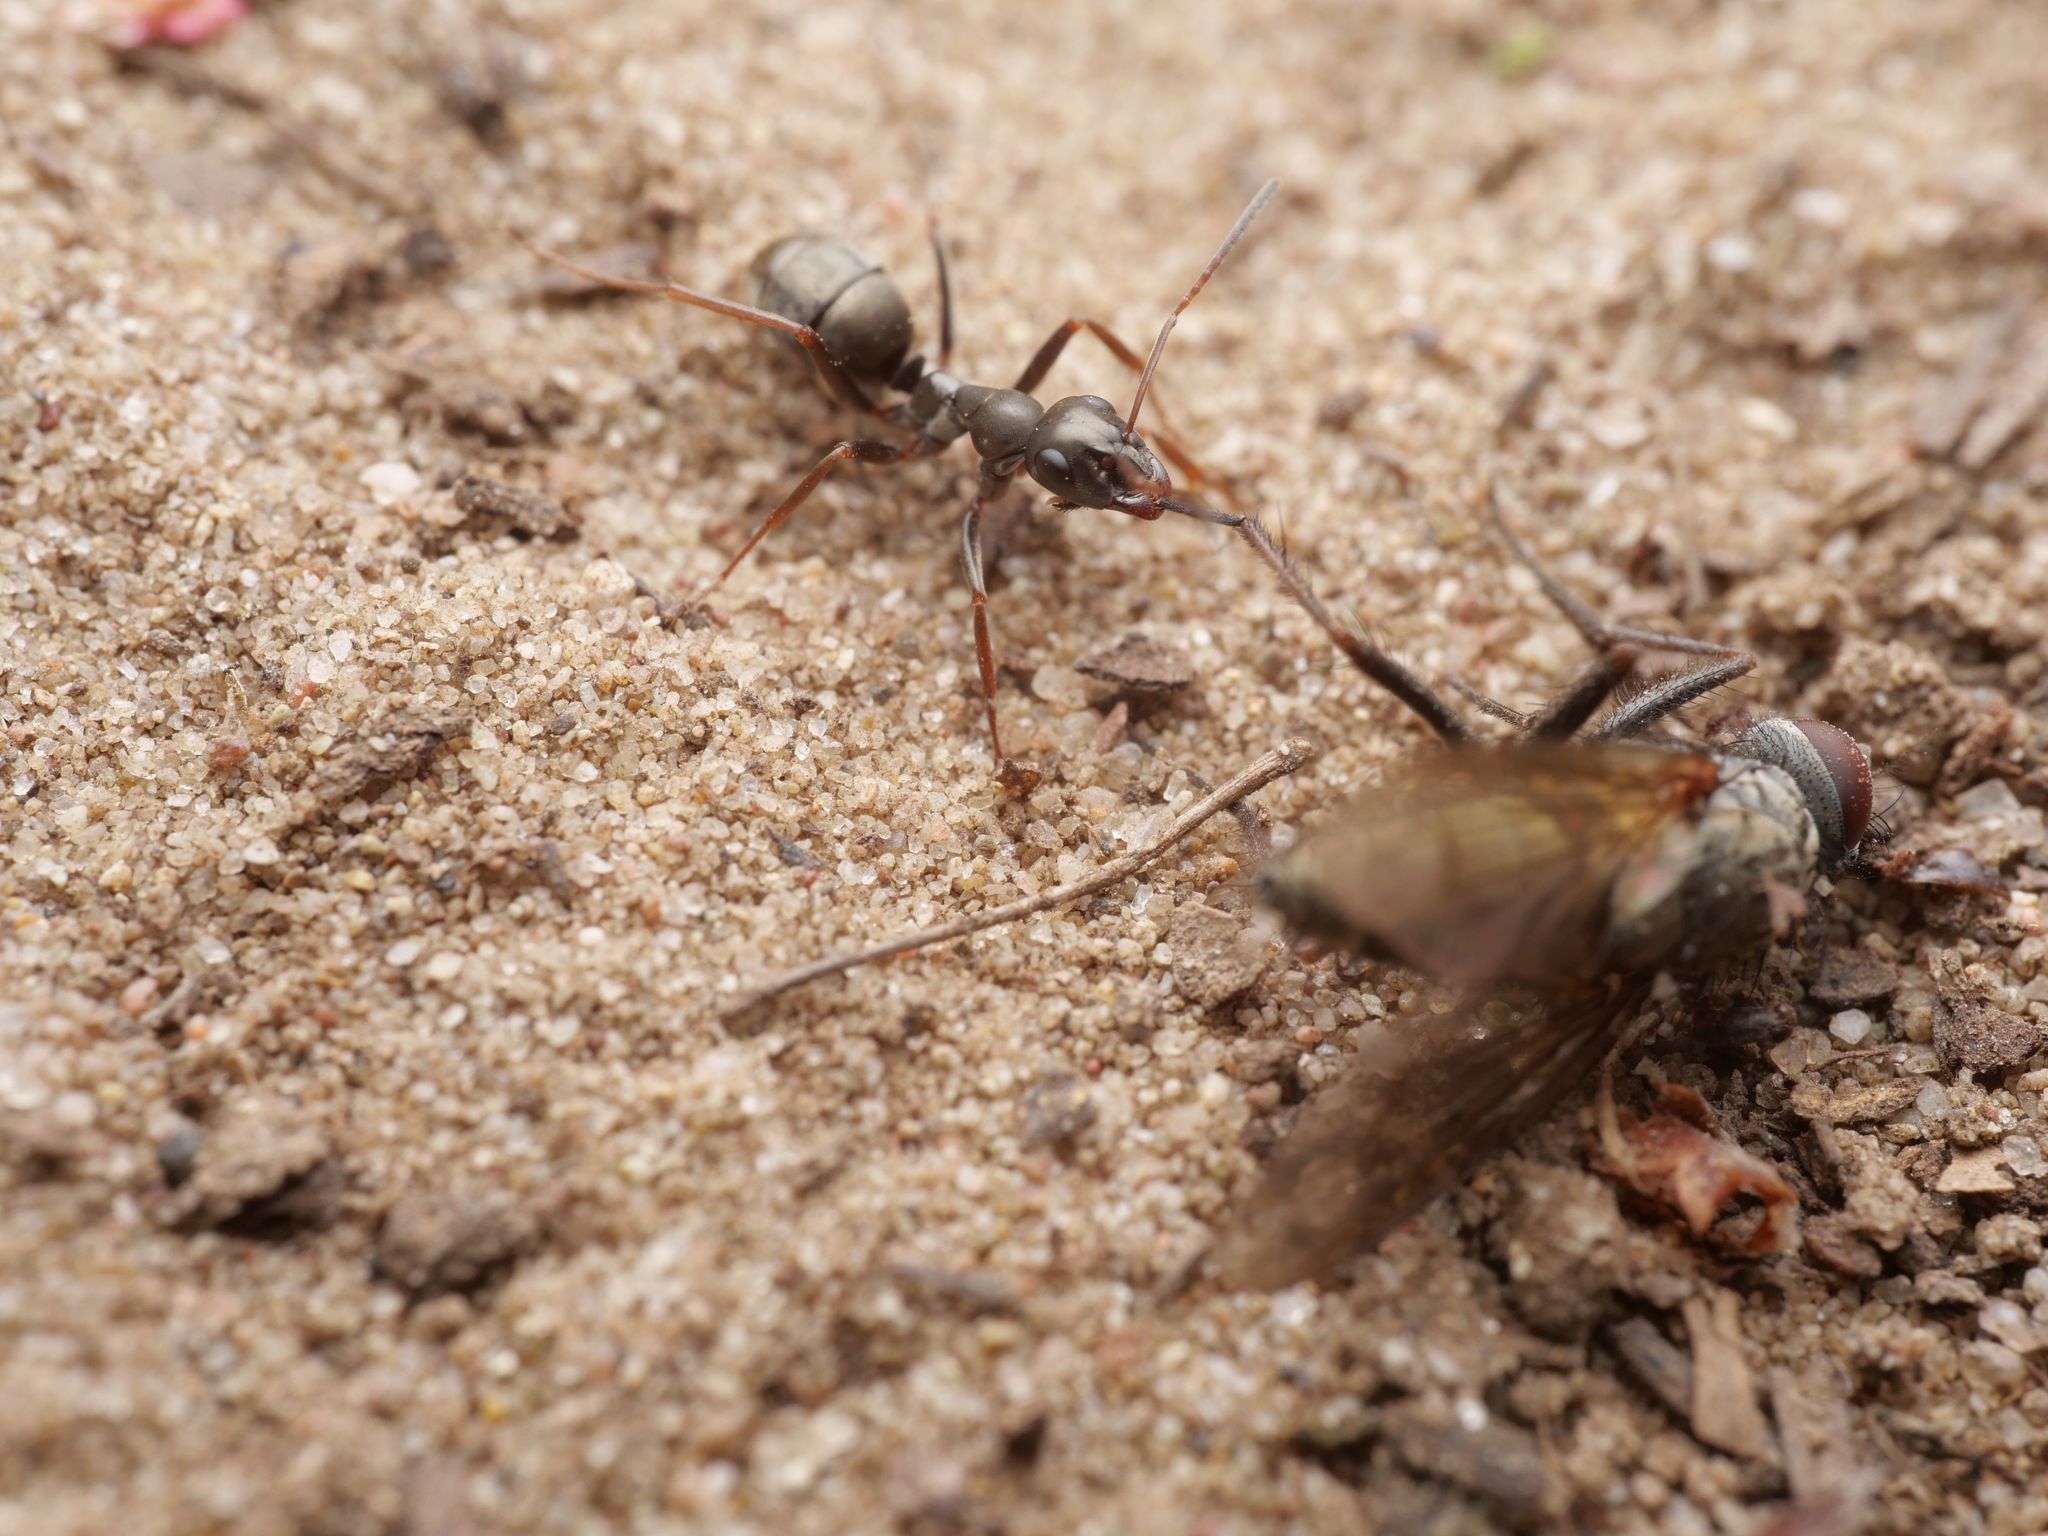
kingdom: Animalia
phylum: Arthropoda
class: Insecta
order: Hymenoptera
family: Formicidae
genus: Formica
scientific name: Formica fusca
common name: Silky ant
